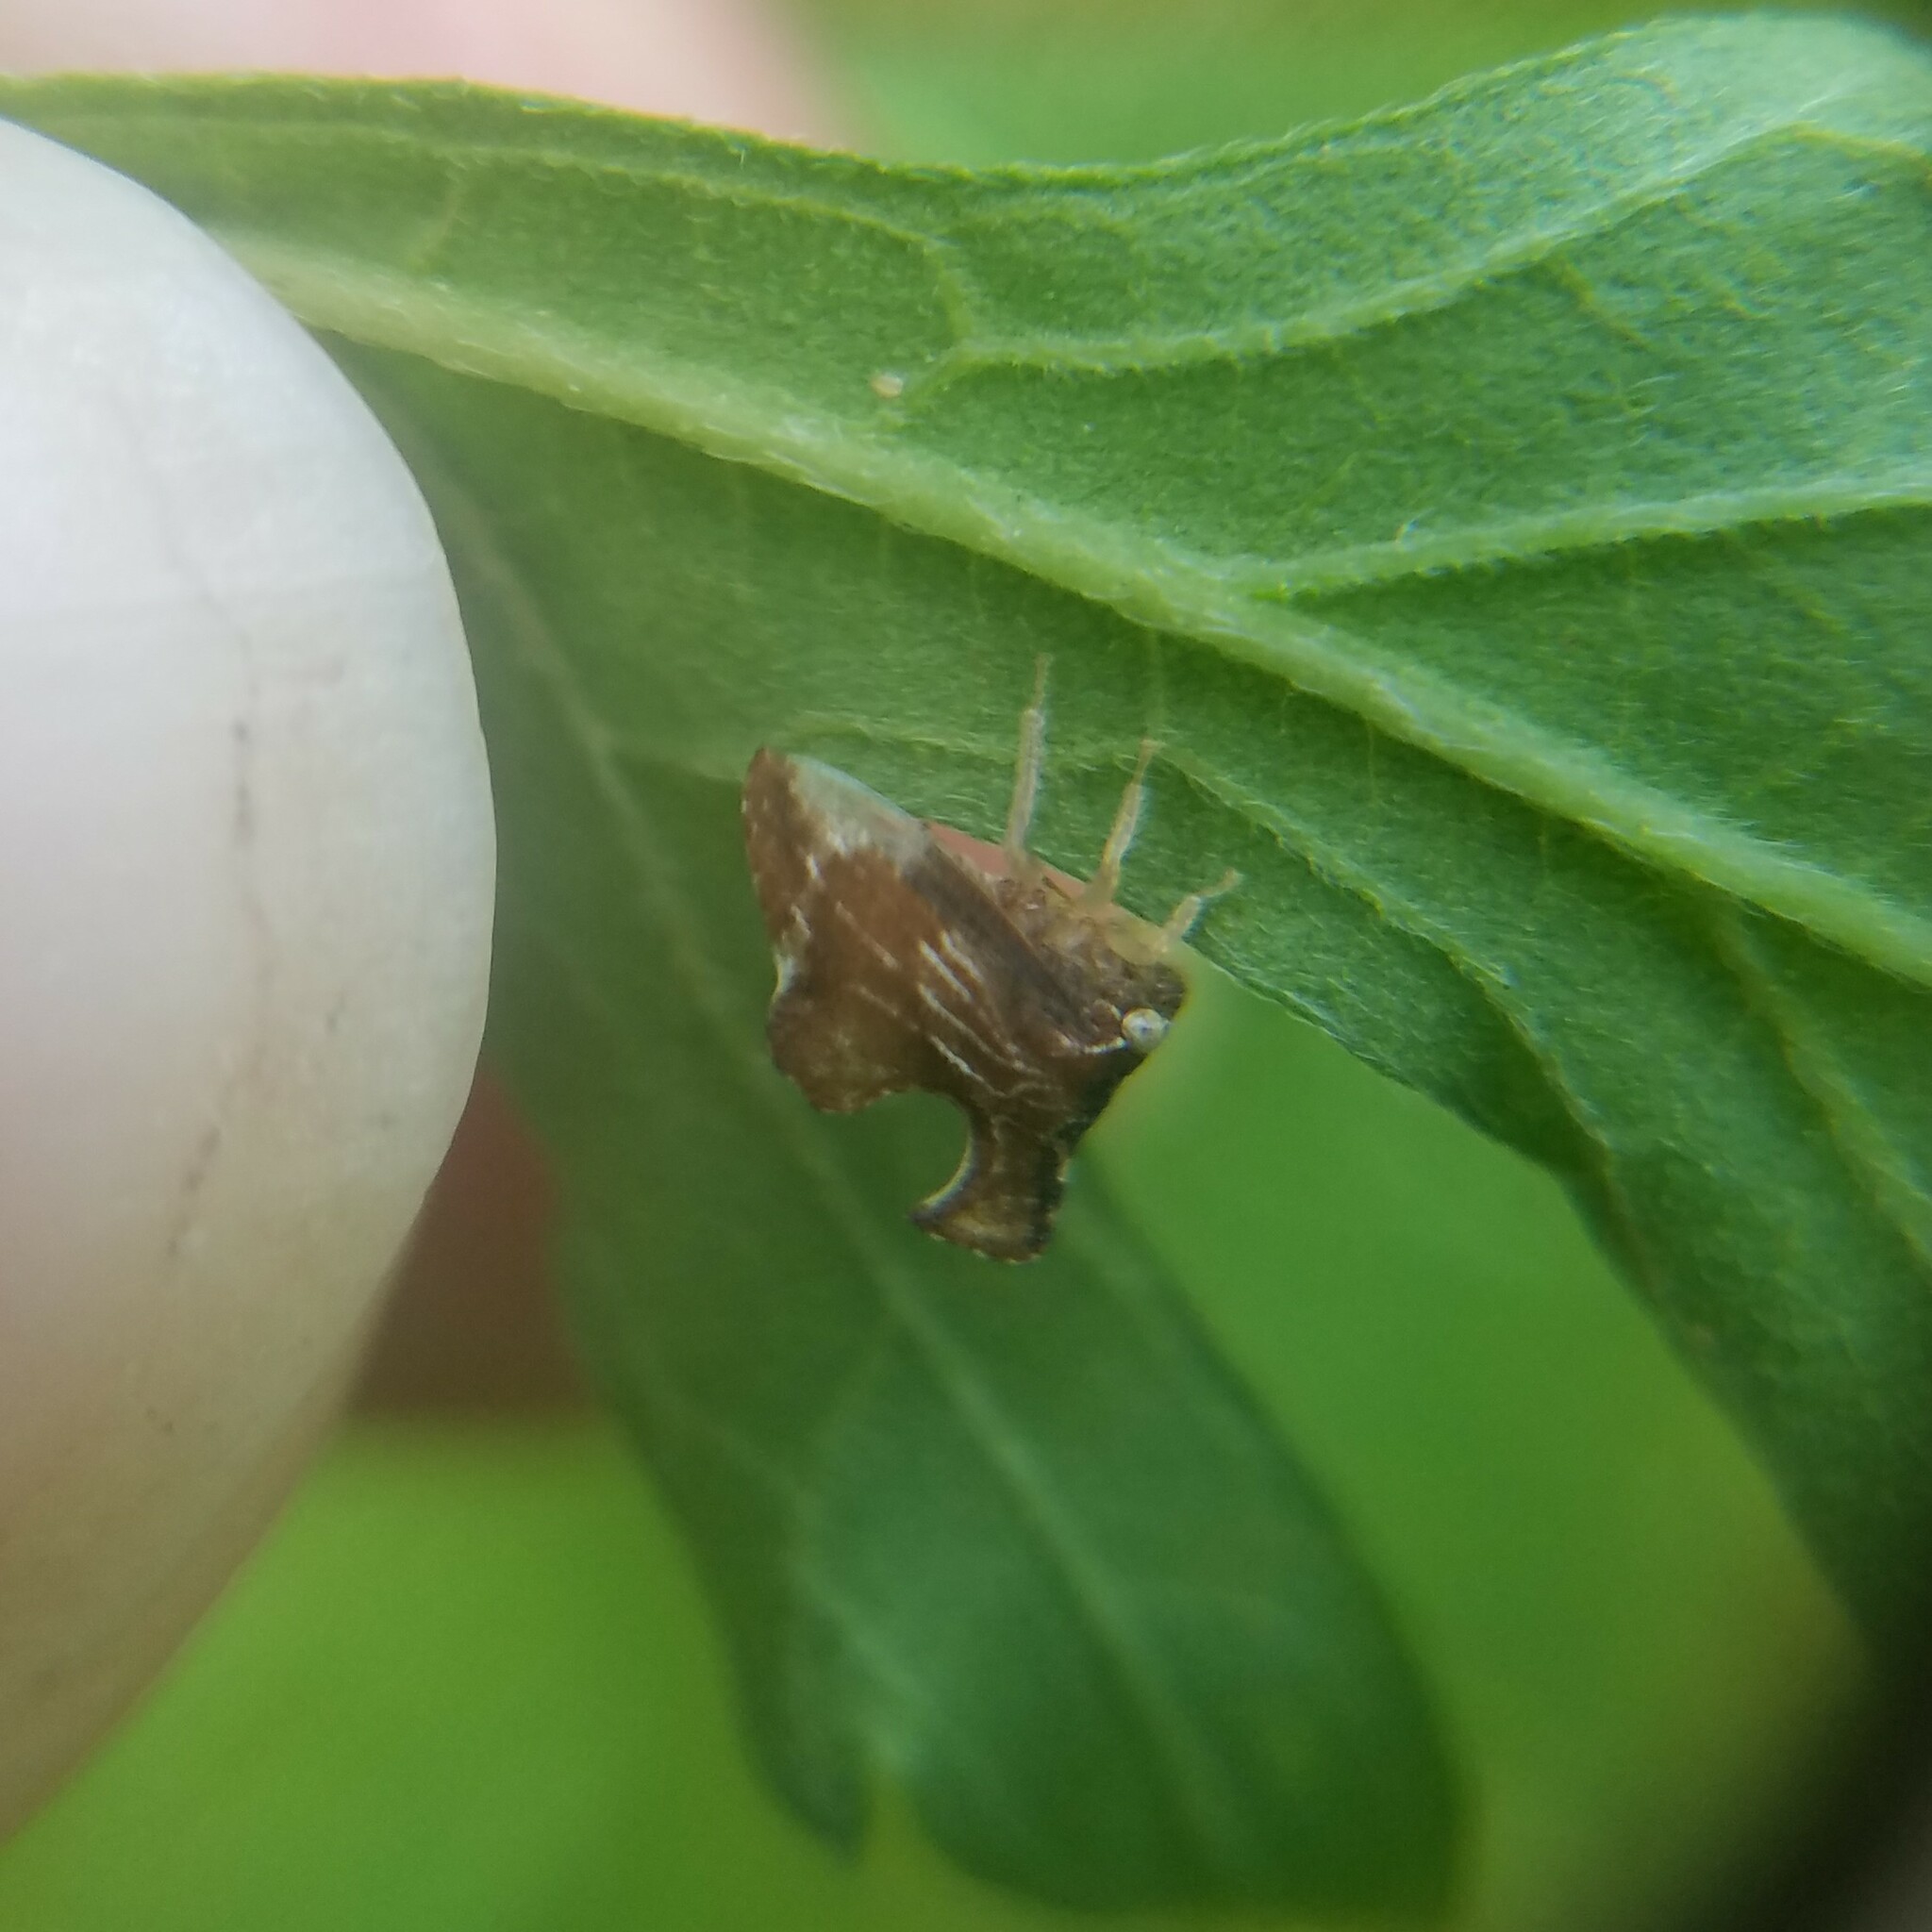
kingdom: Animalia
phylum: Arthropoda
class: Insecta
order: Hemiptera
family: Membracidae
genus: Entylia
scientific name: Entylia carinata
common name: Keeled treehopper
